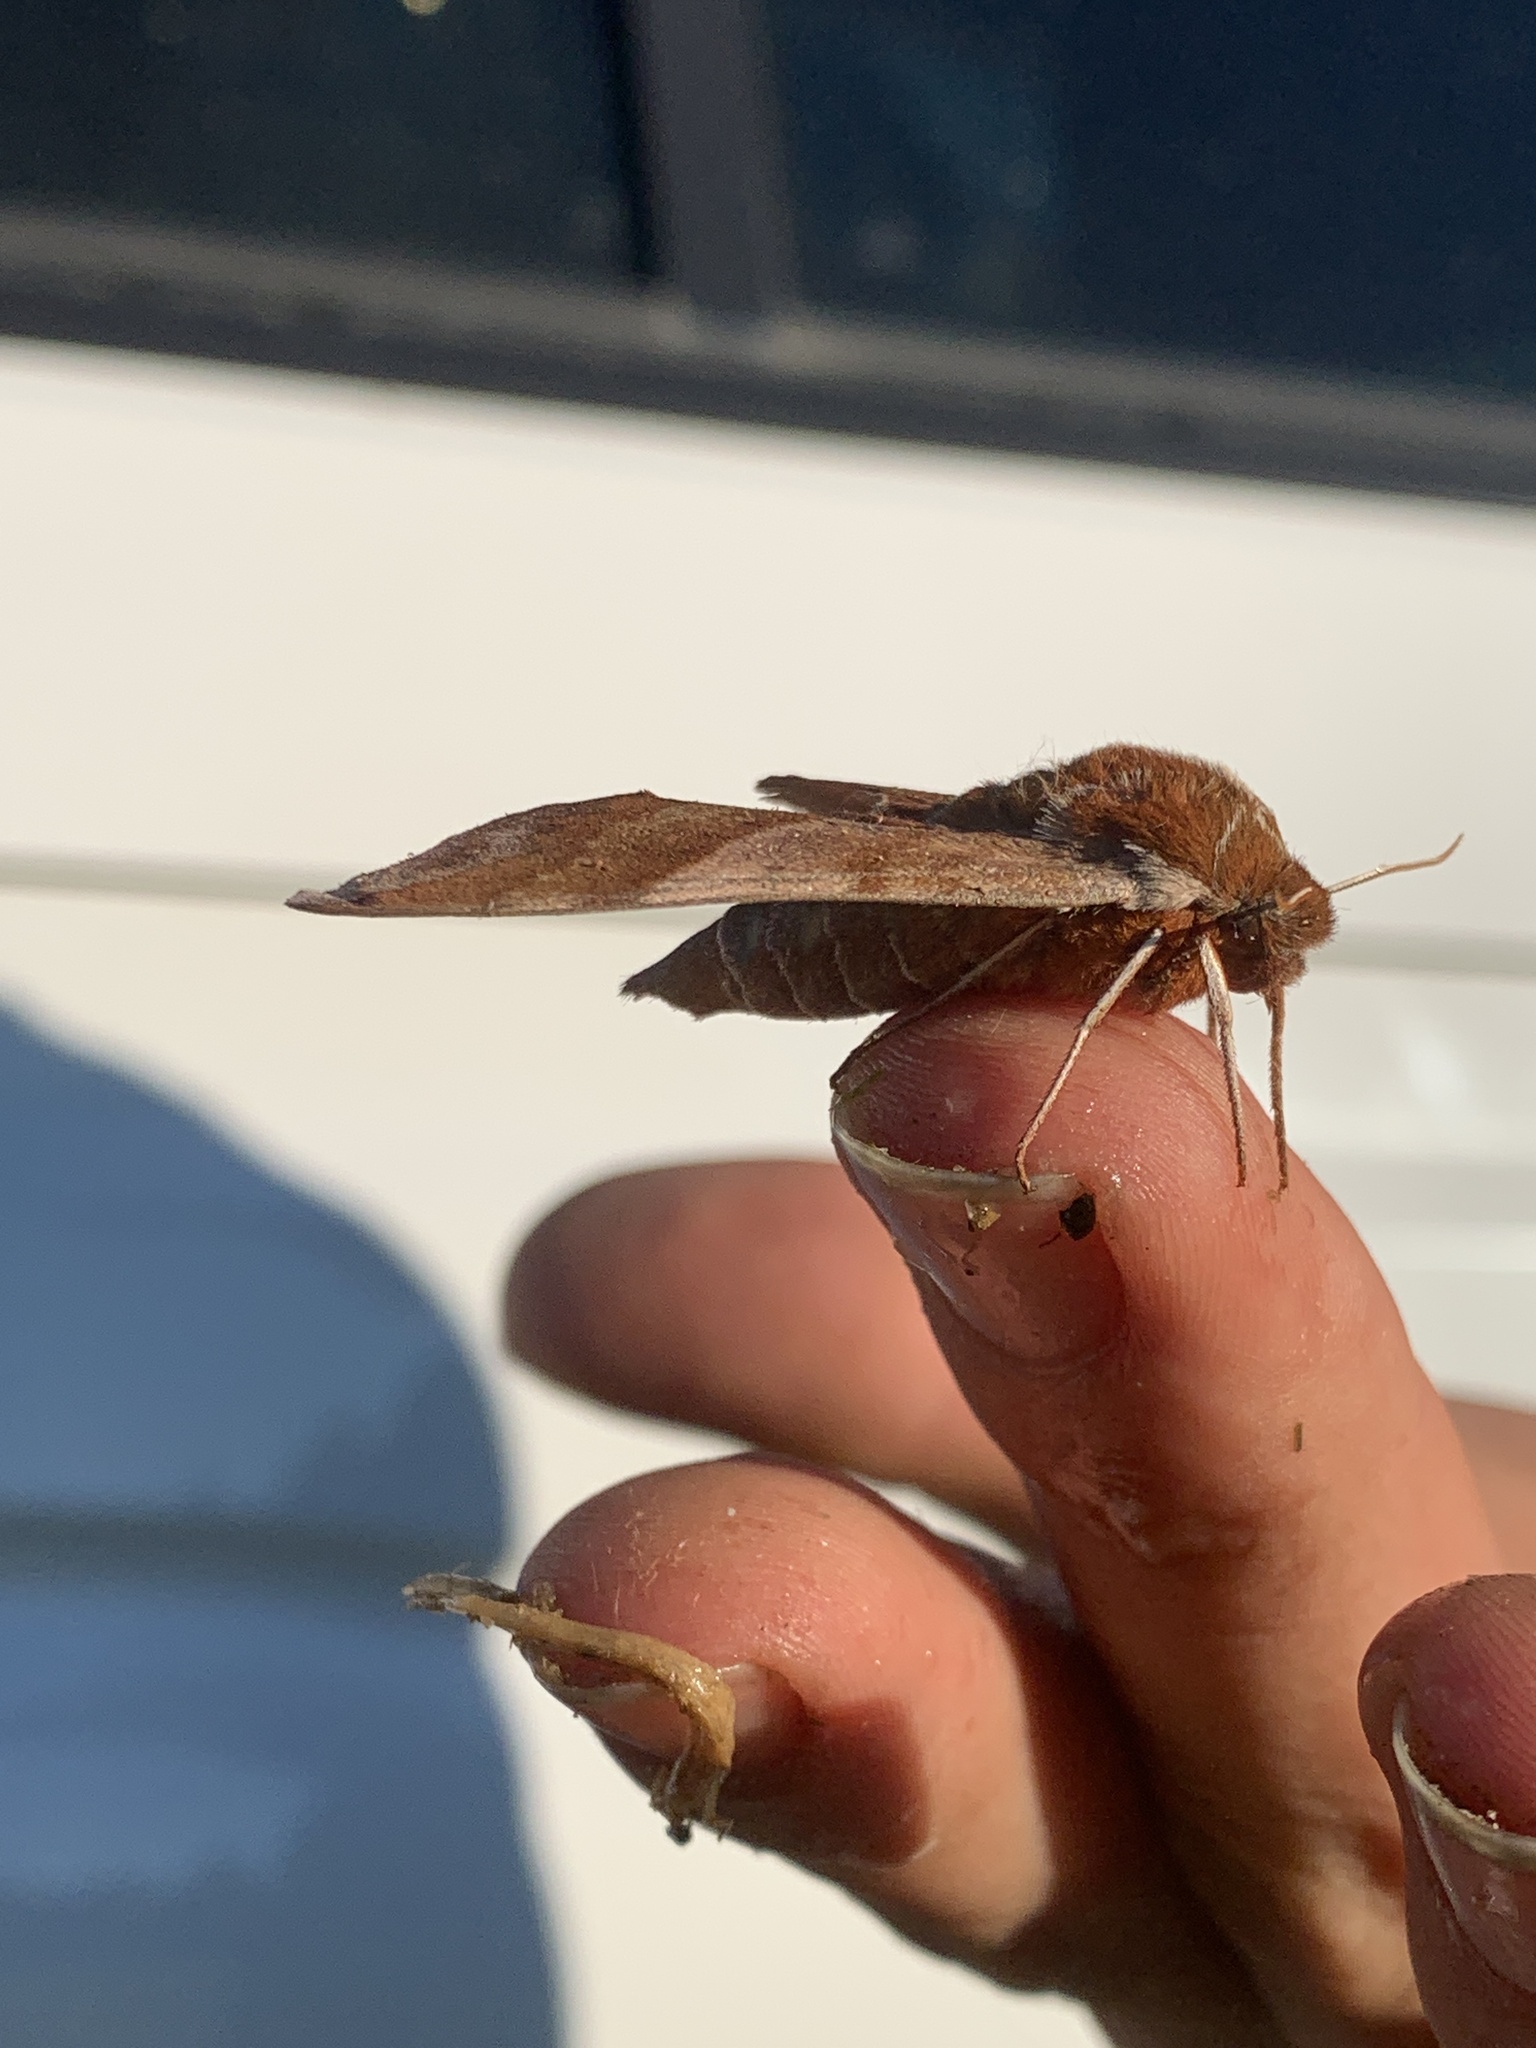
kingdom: Animalia
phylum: Arthropoda
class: Insecta
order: Lepidoptera
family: Sphingidae
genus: Darapsa
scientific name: Darapsa choerilus
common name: Azalea sphinx
